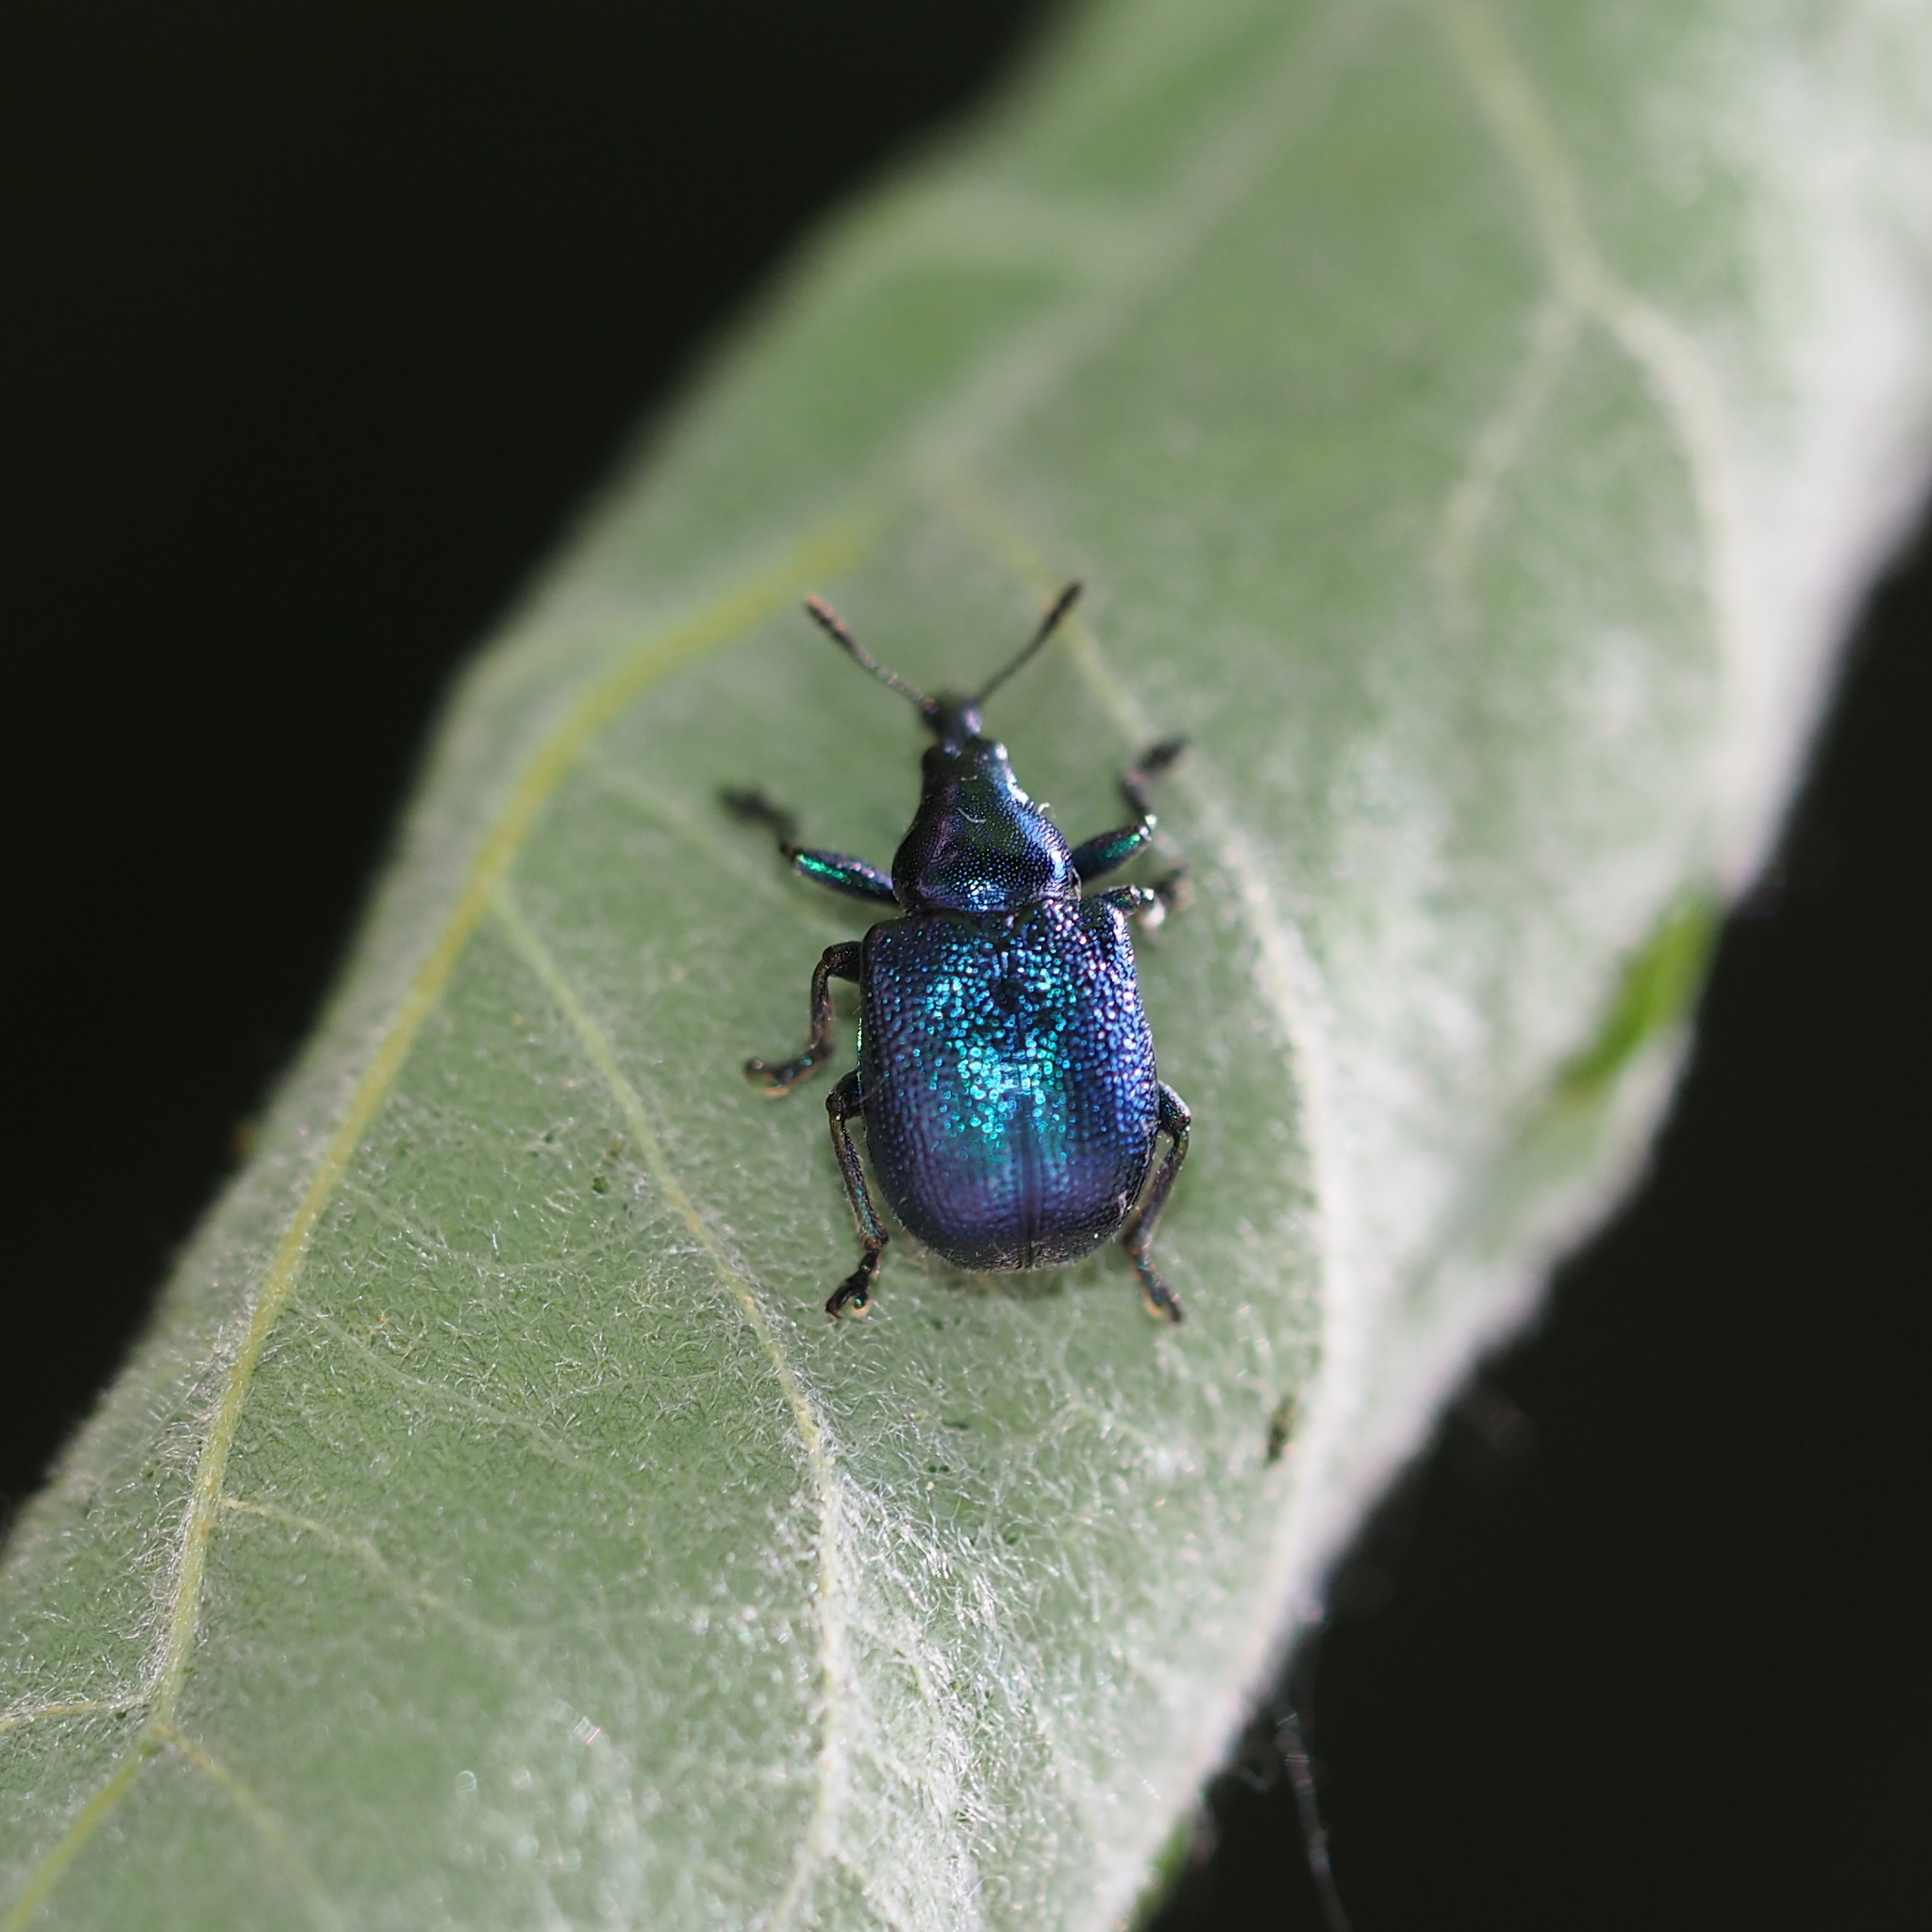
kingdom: Animalia
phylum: Arthropoda
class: Insecta
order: Coleoptera
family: Attelabidae
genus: Byctiscus
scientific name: Byctiscus betulae
